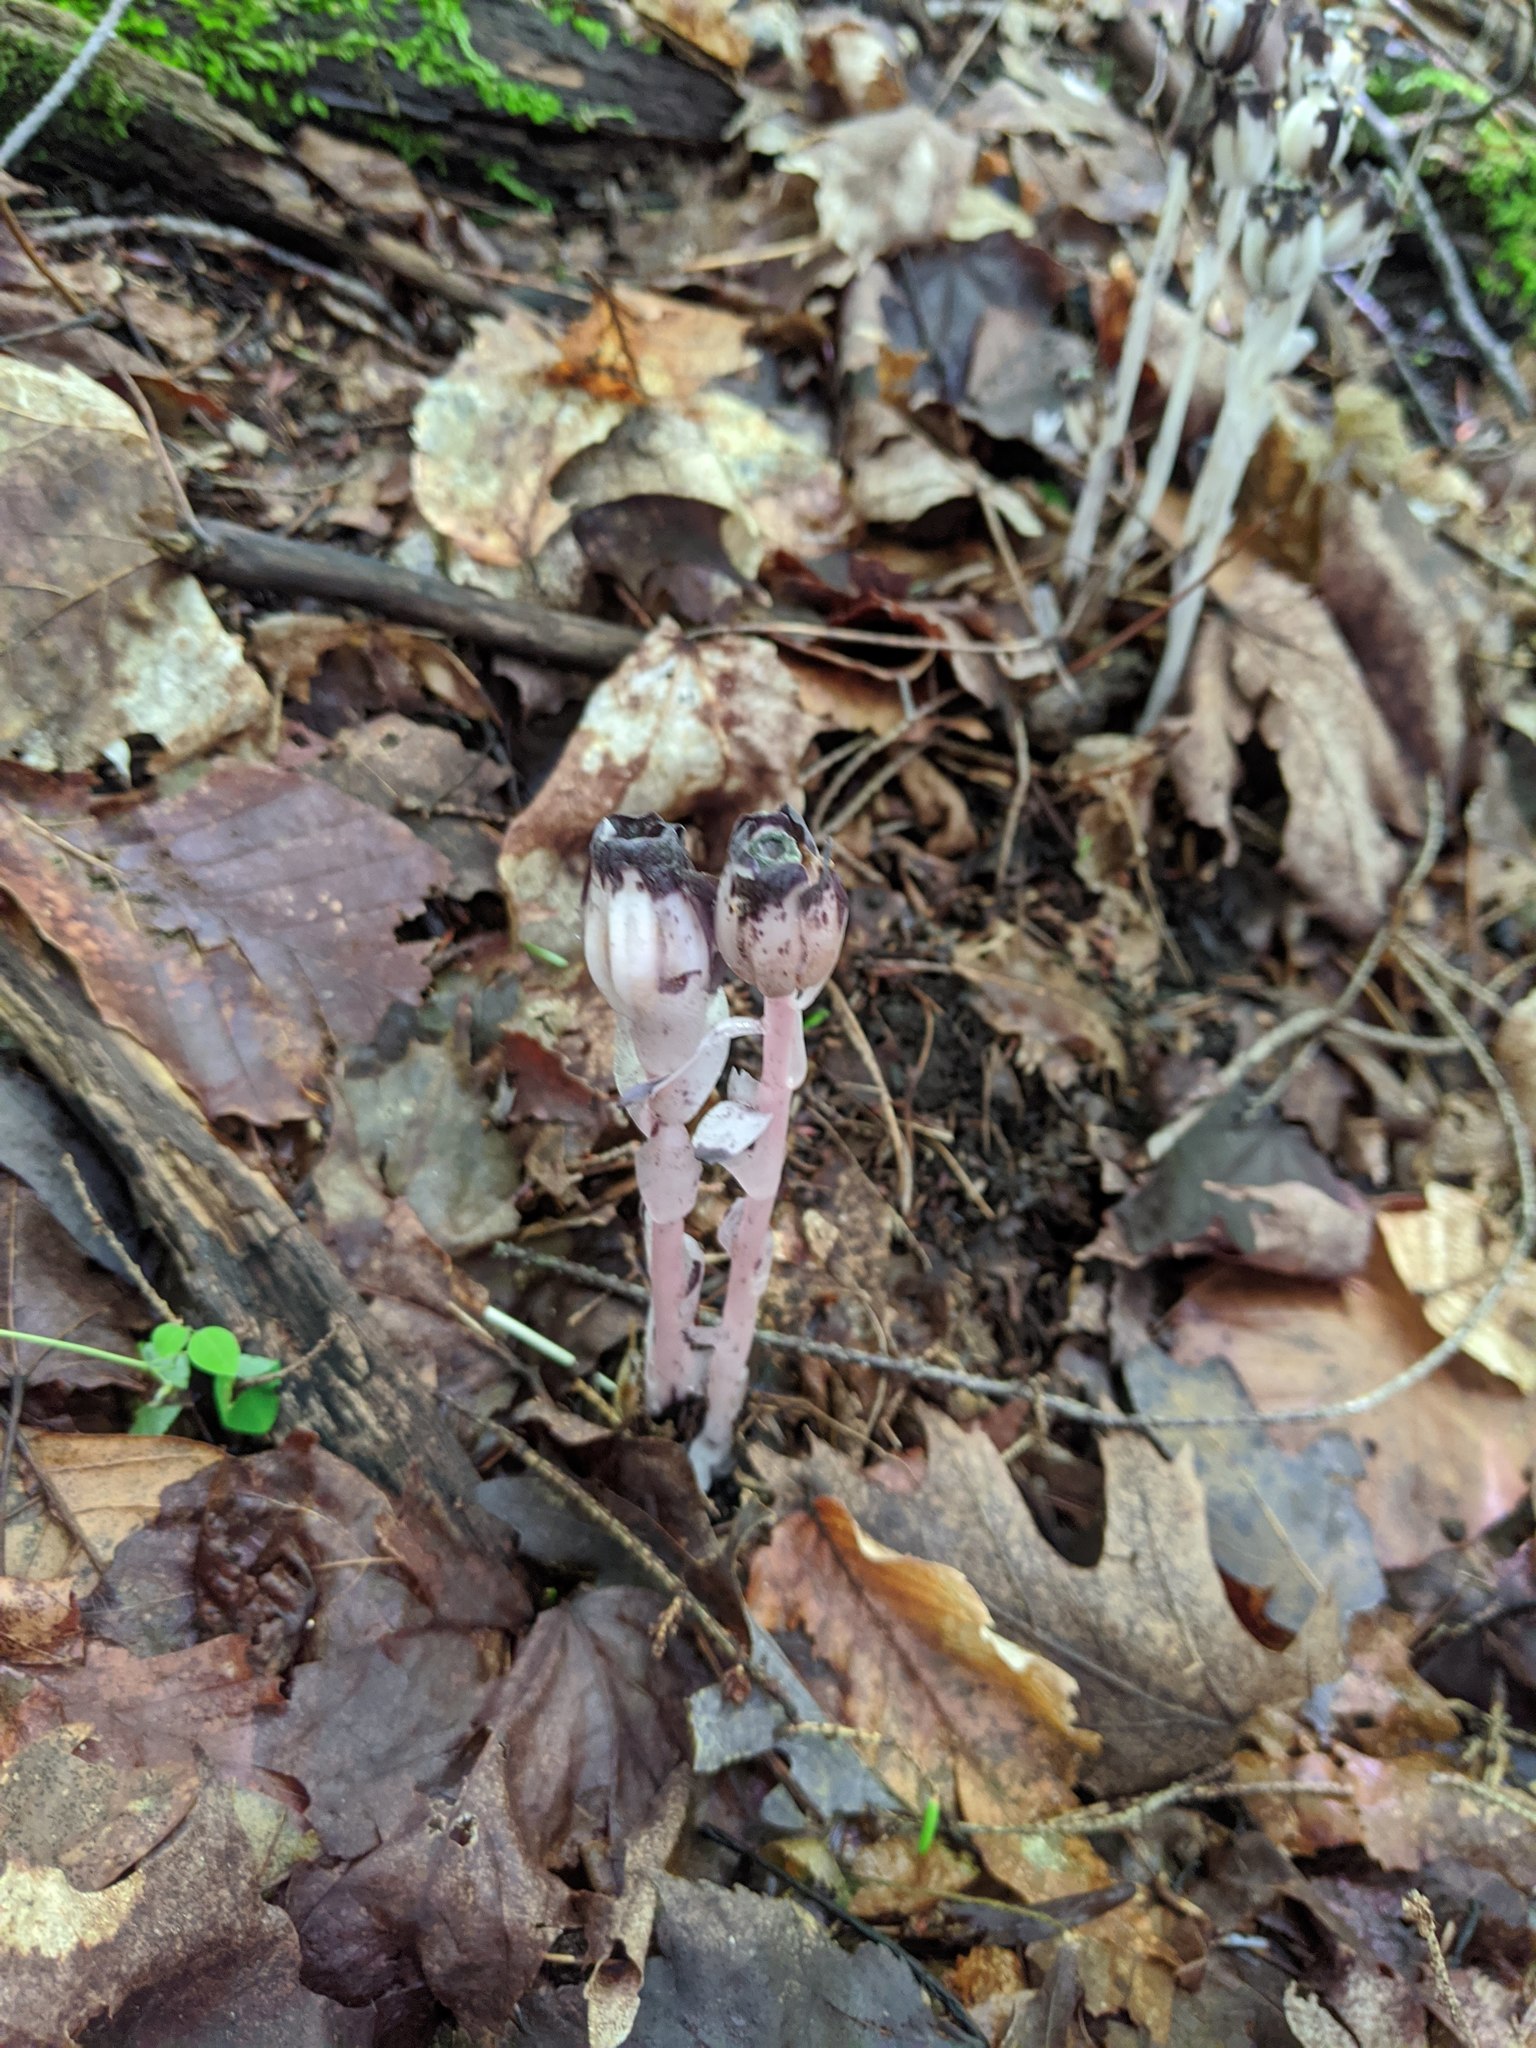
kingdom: Plantae
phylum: Tracheophyta
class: Magnoliopsida
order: Ericales
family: Ericaceae
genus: Monotropa
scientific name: Monotropa uniflora
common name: Convulsion root
